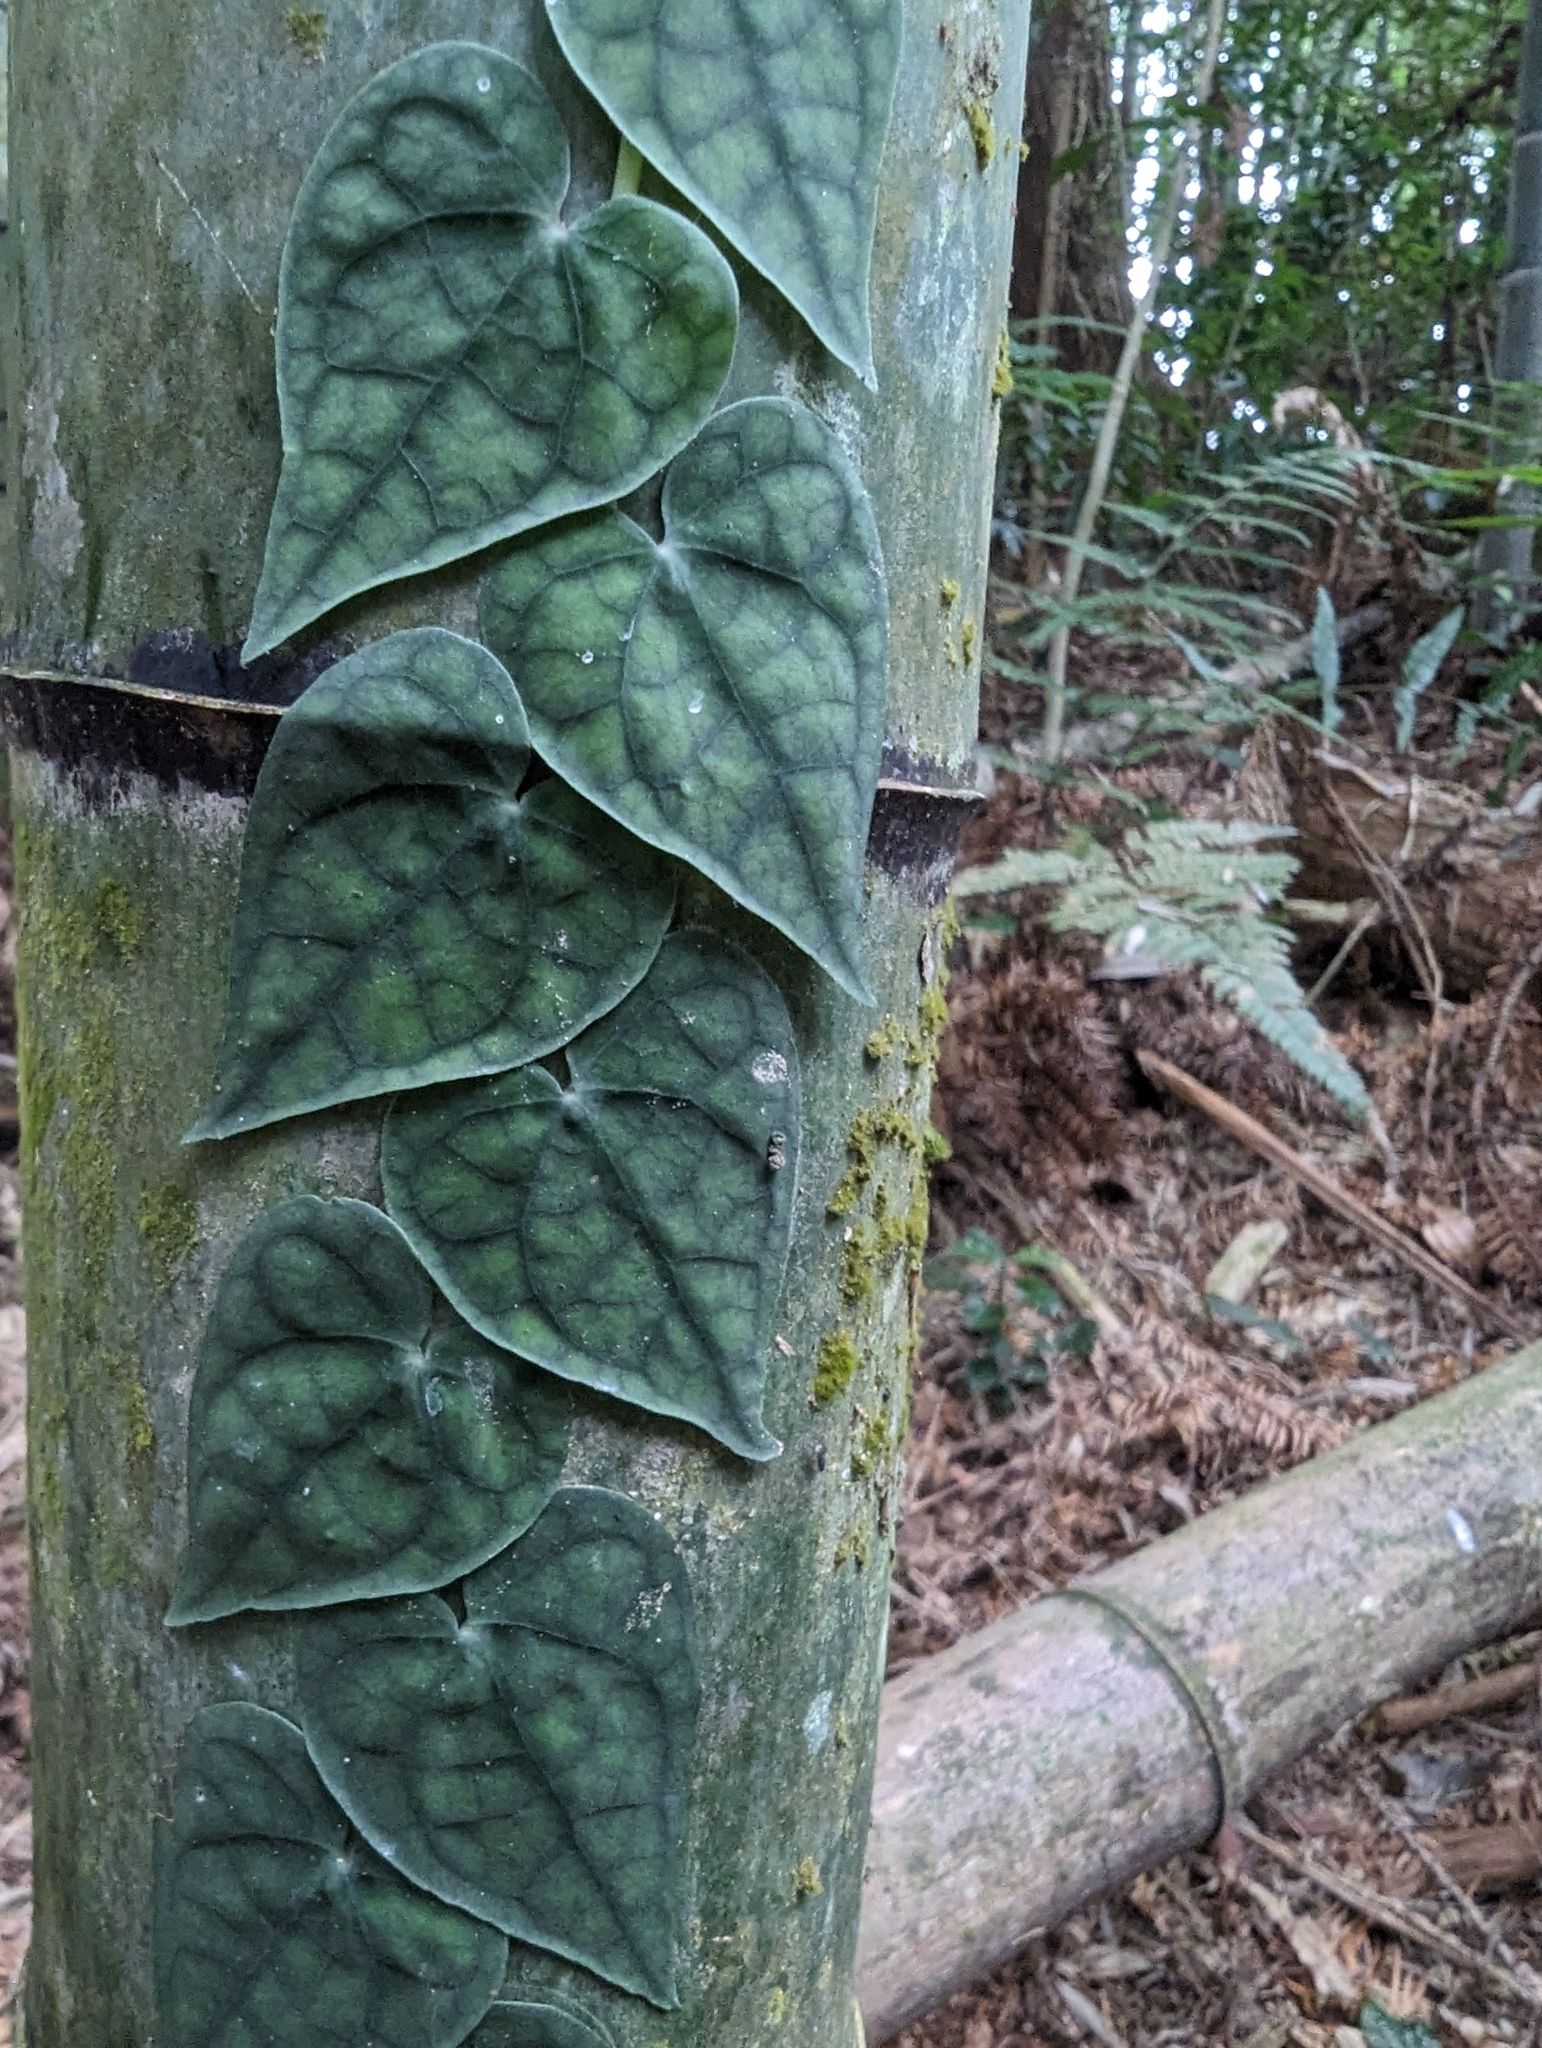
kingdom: Plantae
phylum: Tracheophyta
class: Magnoliopsida
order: Piperales
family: Piperaceae
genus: Piper
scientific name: Piper taiwanense
